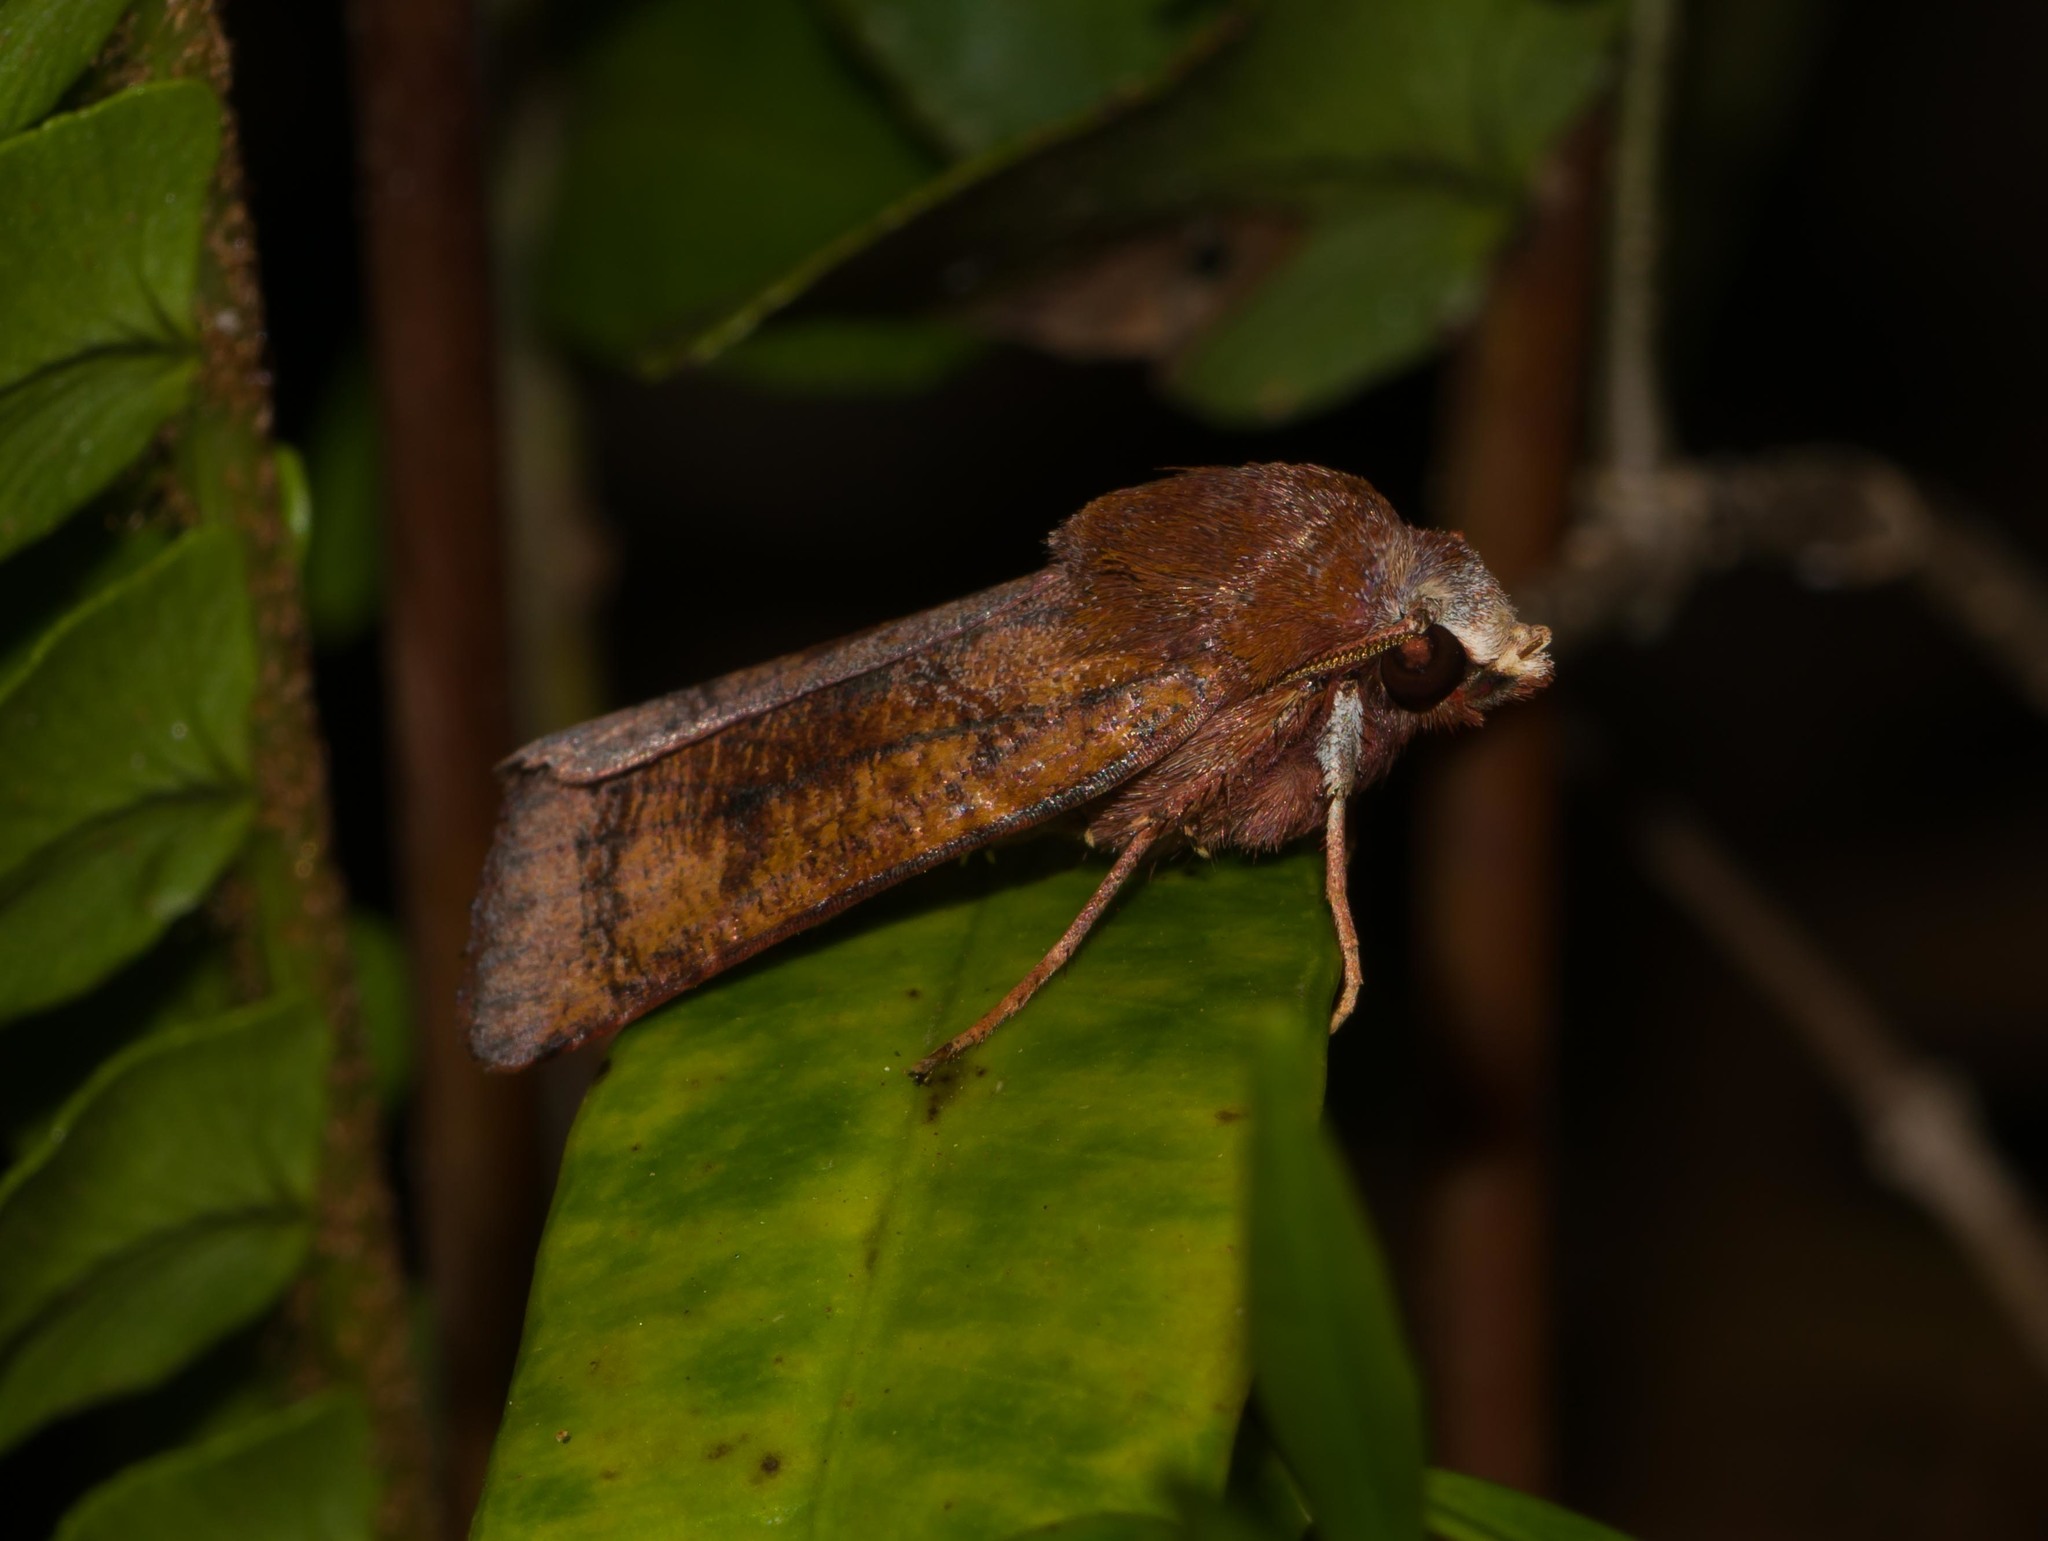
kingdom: Animalia
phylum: Arthropoda
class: Insecta
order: Lepidoptera
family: Noctuidae
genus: Agrotis
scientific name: Agrotis hephaestaea
